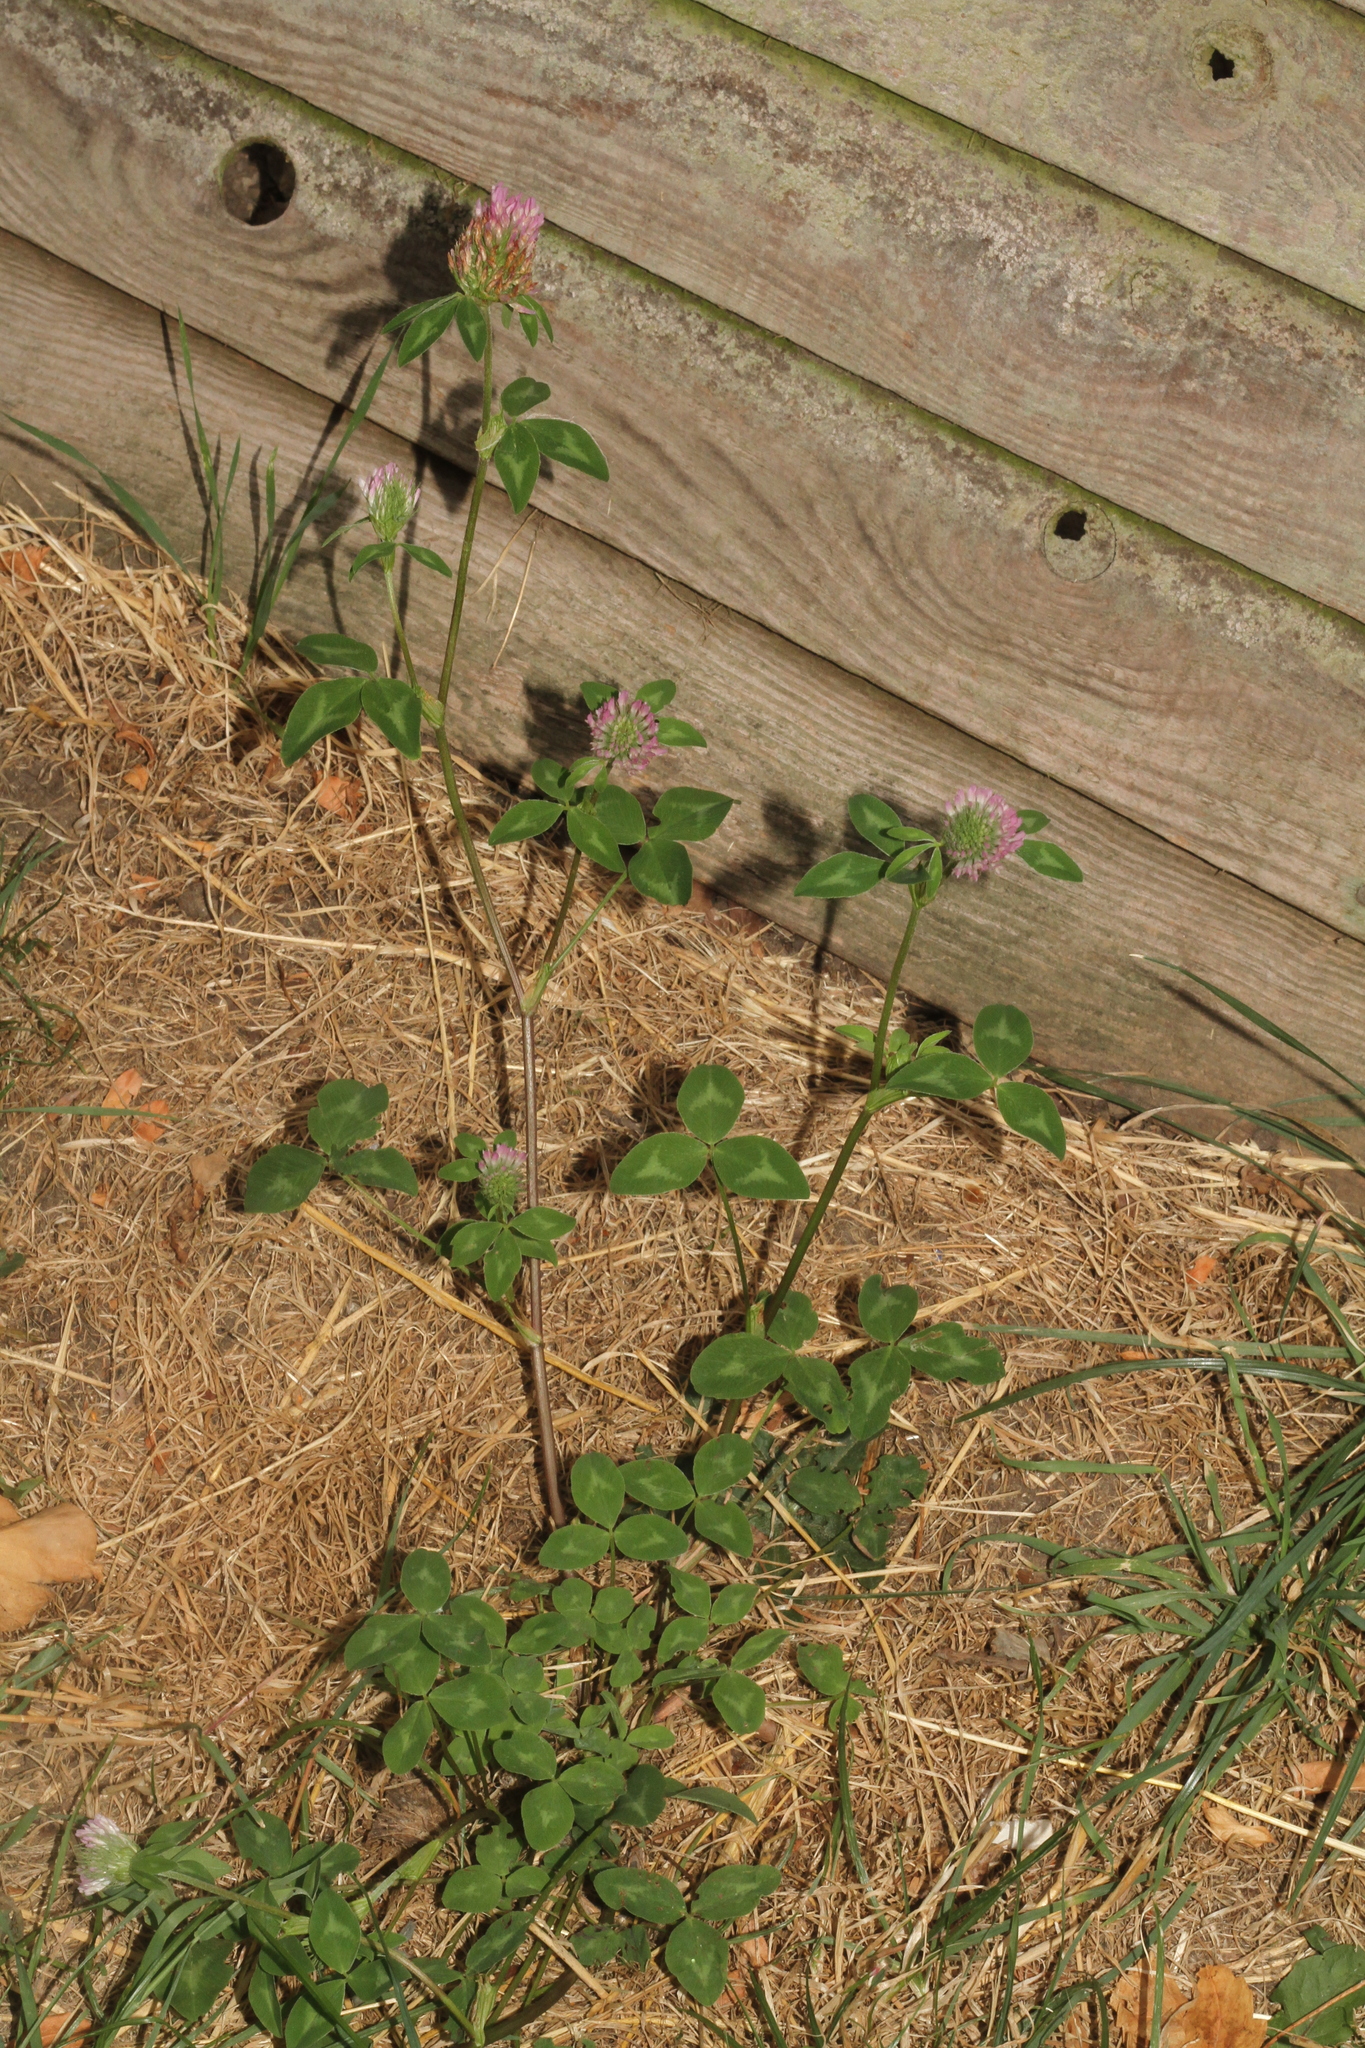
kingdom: Plantae
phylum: Tracheophyta
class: Magnoliopsida
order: Fabales
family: Fabaceae
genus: Trifolium
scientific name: Trifolium pratense
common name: Red clover
